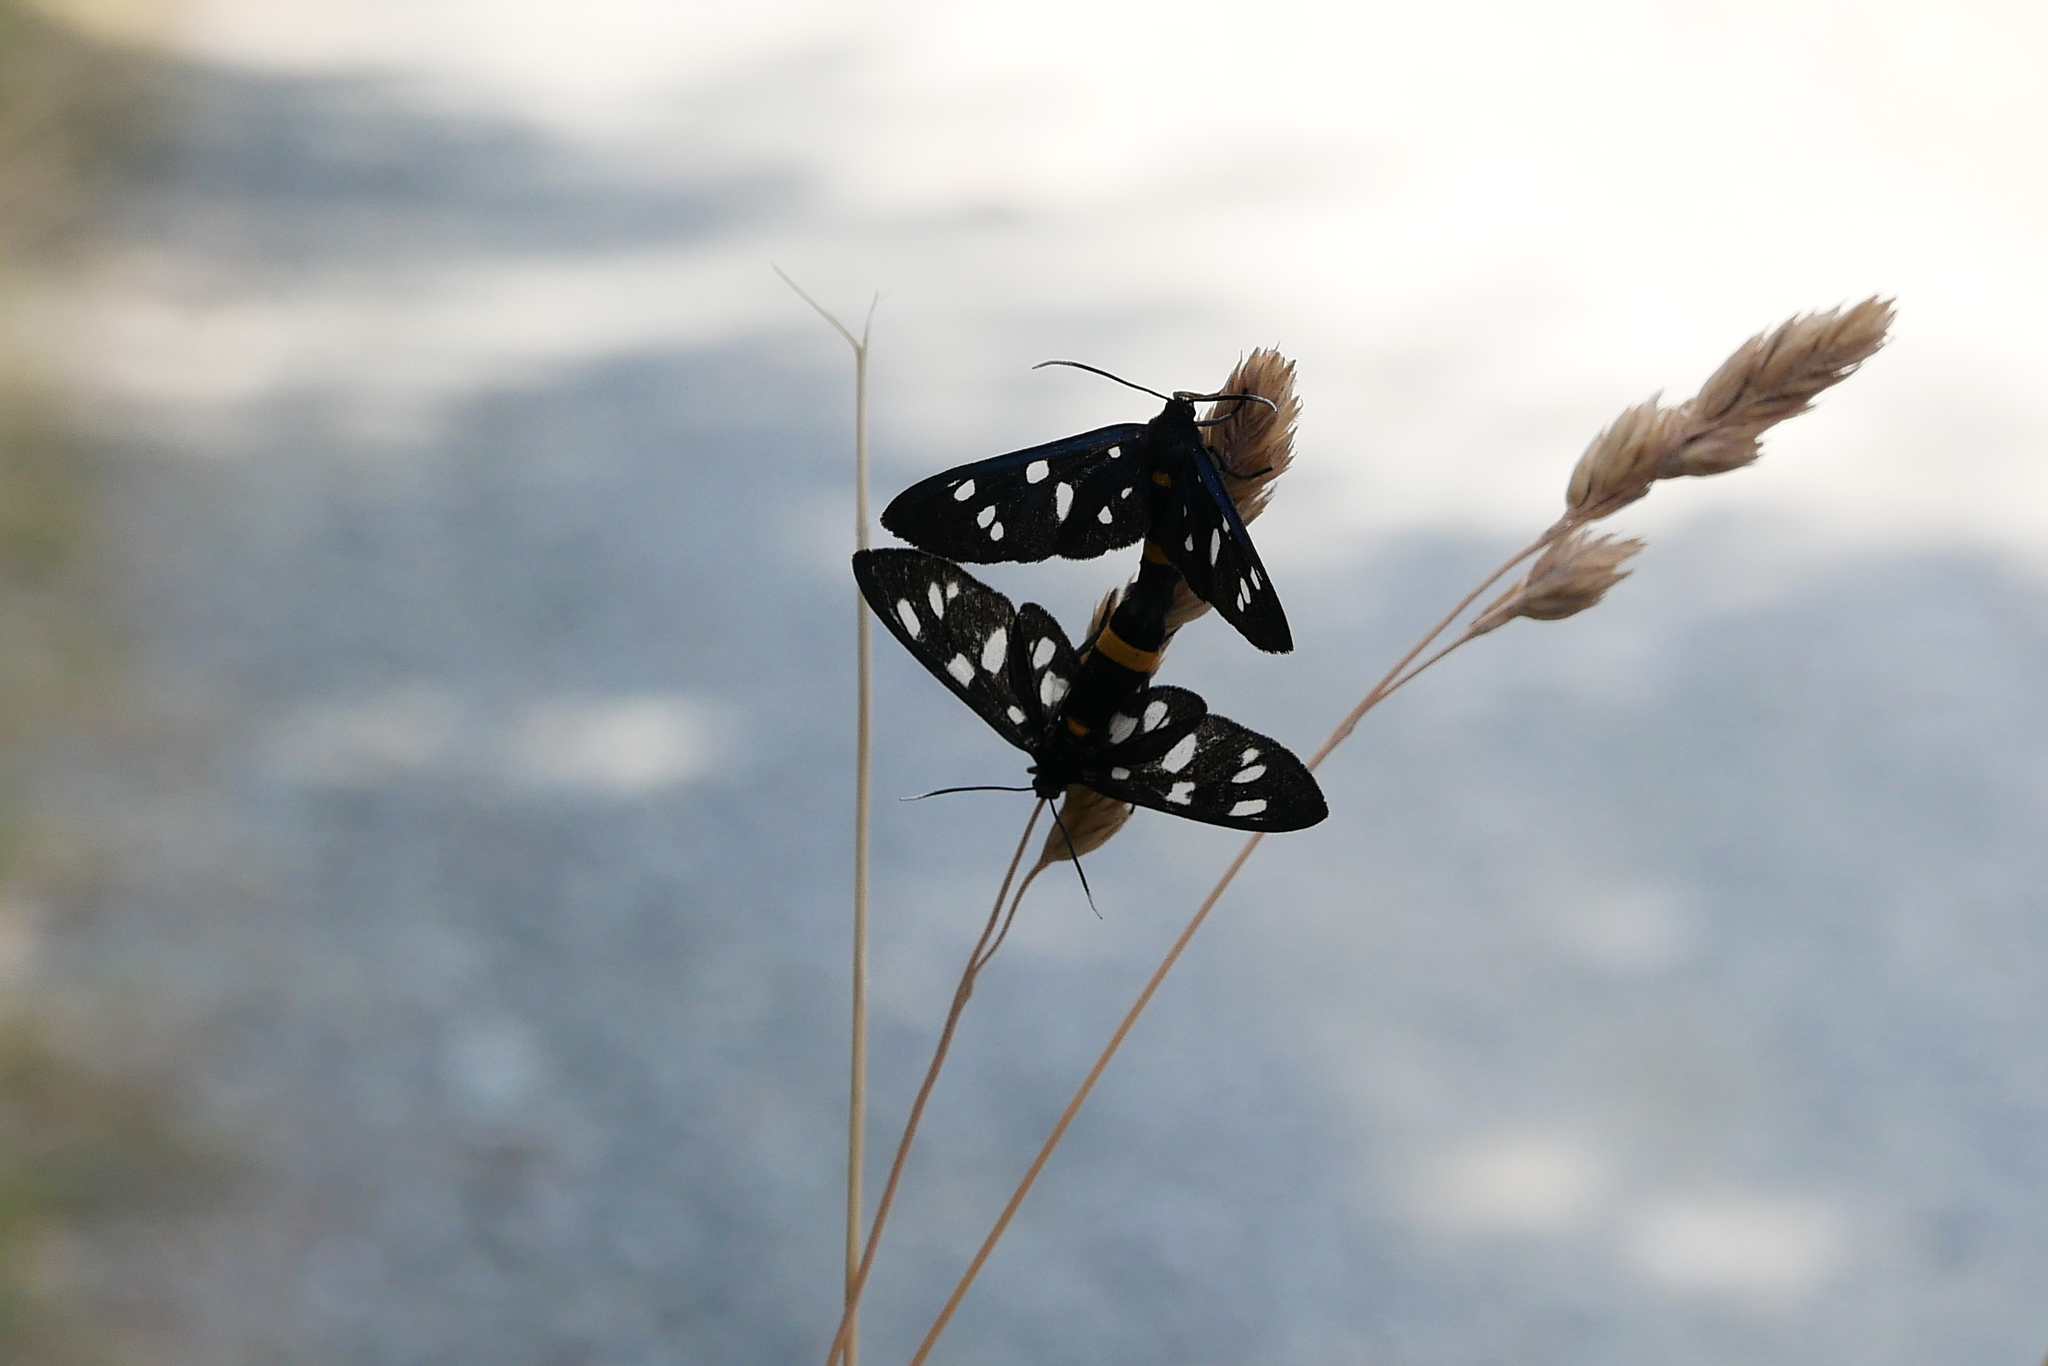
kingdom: Animalia
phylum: Arthropoda
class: Insecta
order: Lepidoptera
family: Erebidae
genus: Amata
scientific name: Amata phegea
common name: Nine-spotted
